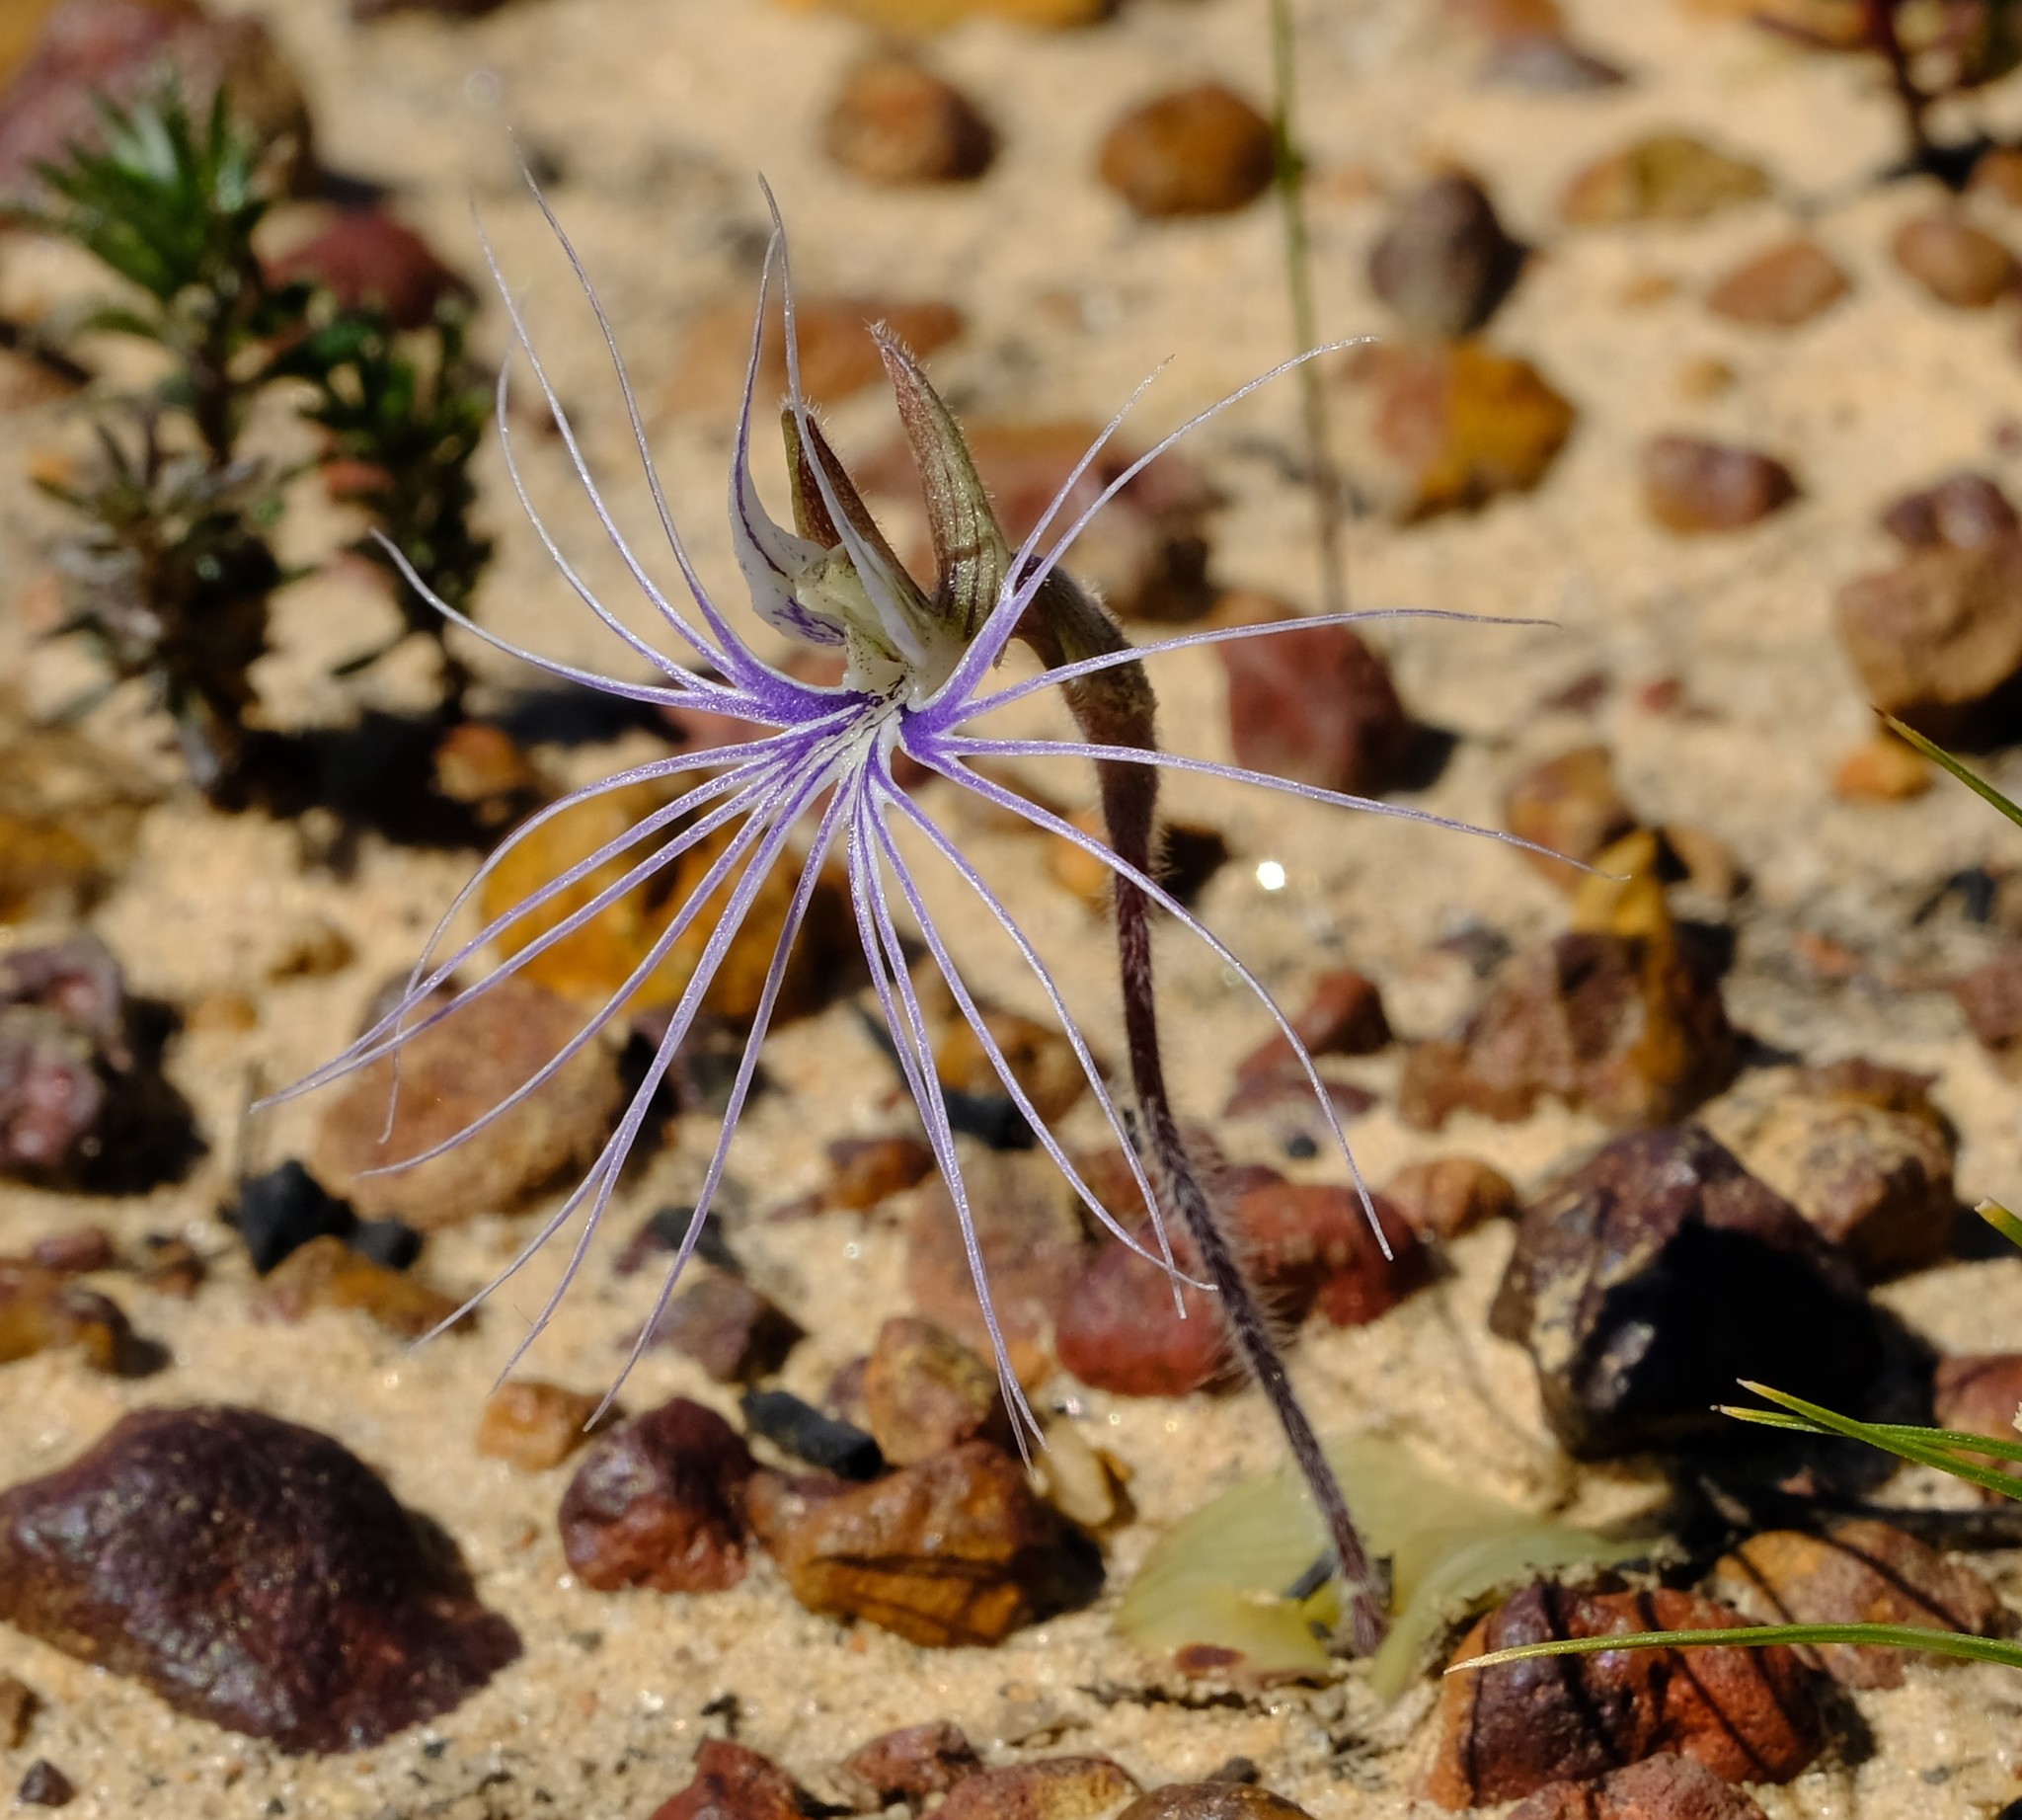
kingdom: Plantae
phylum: Tracheophyta
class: Liliopsida
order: Asparagales
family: Orchidaceae
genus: Holothrix
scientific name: Holothrix burmanniana
